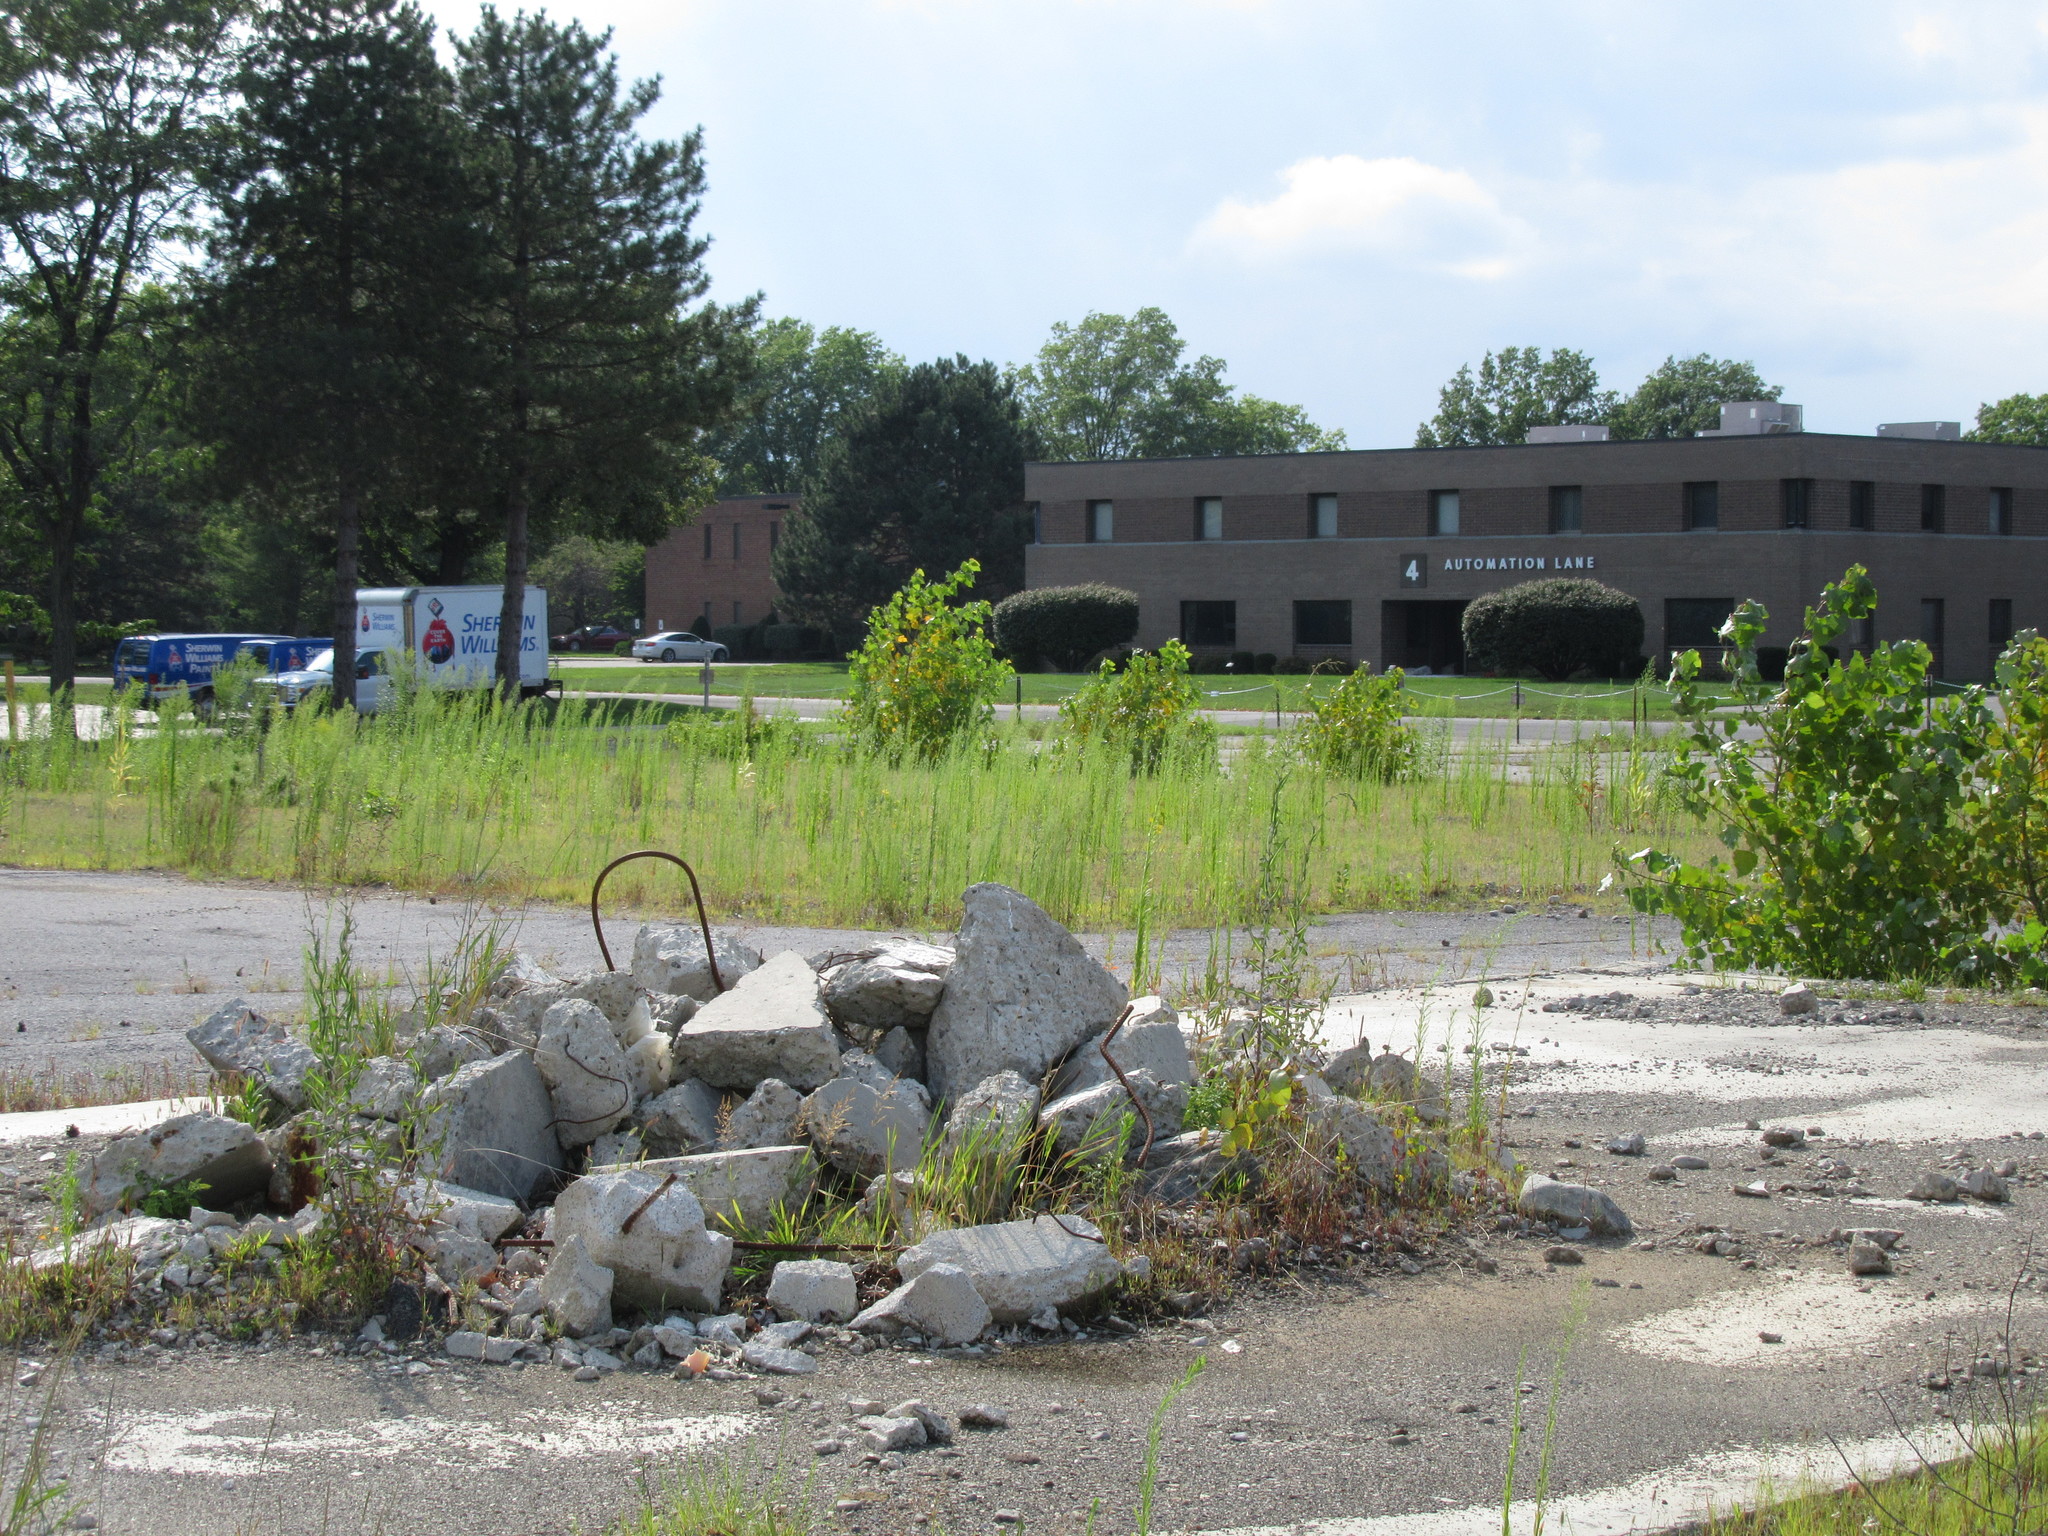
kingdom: Plantae
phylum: Tracheophyta
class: Magnoliopsida
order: Asterales
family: Asteraceae
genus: Lactuca
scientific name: Lactuca serriola
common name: Prickly lettuce
